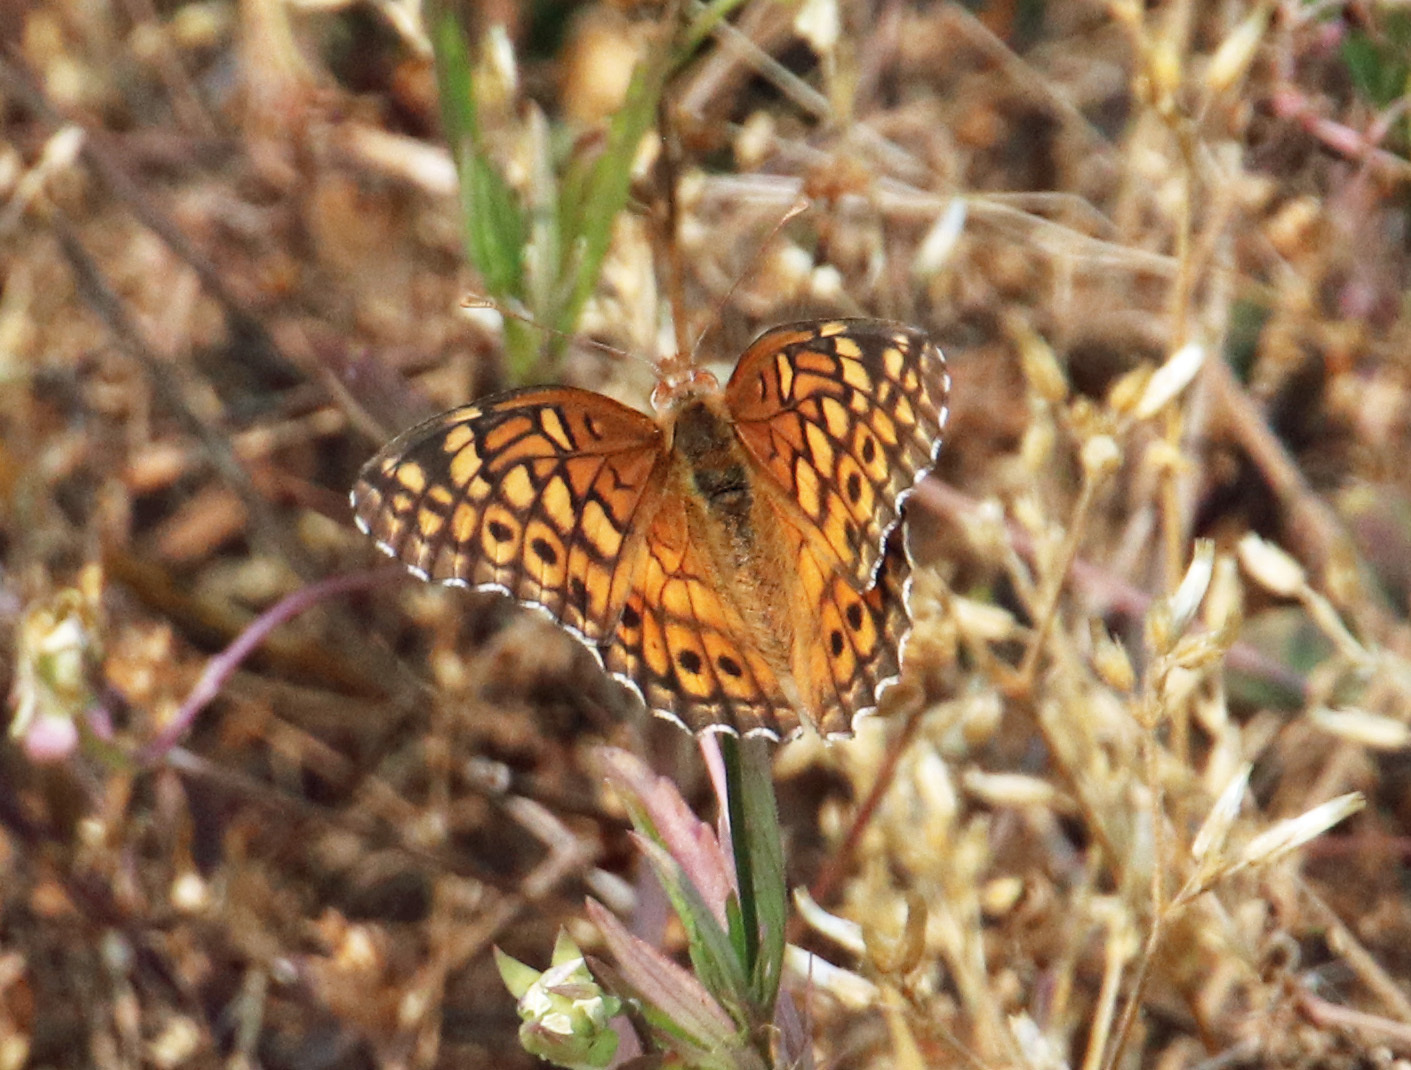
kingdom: Animalia
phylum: Arthropoda
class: Insecta
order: Lepidoptera
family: Nymphalidae
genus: Euptoieta
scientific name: Euptoieta claudia
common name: Variegated fritillary
